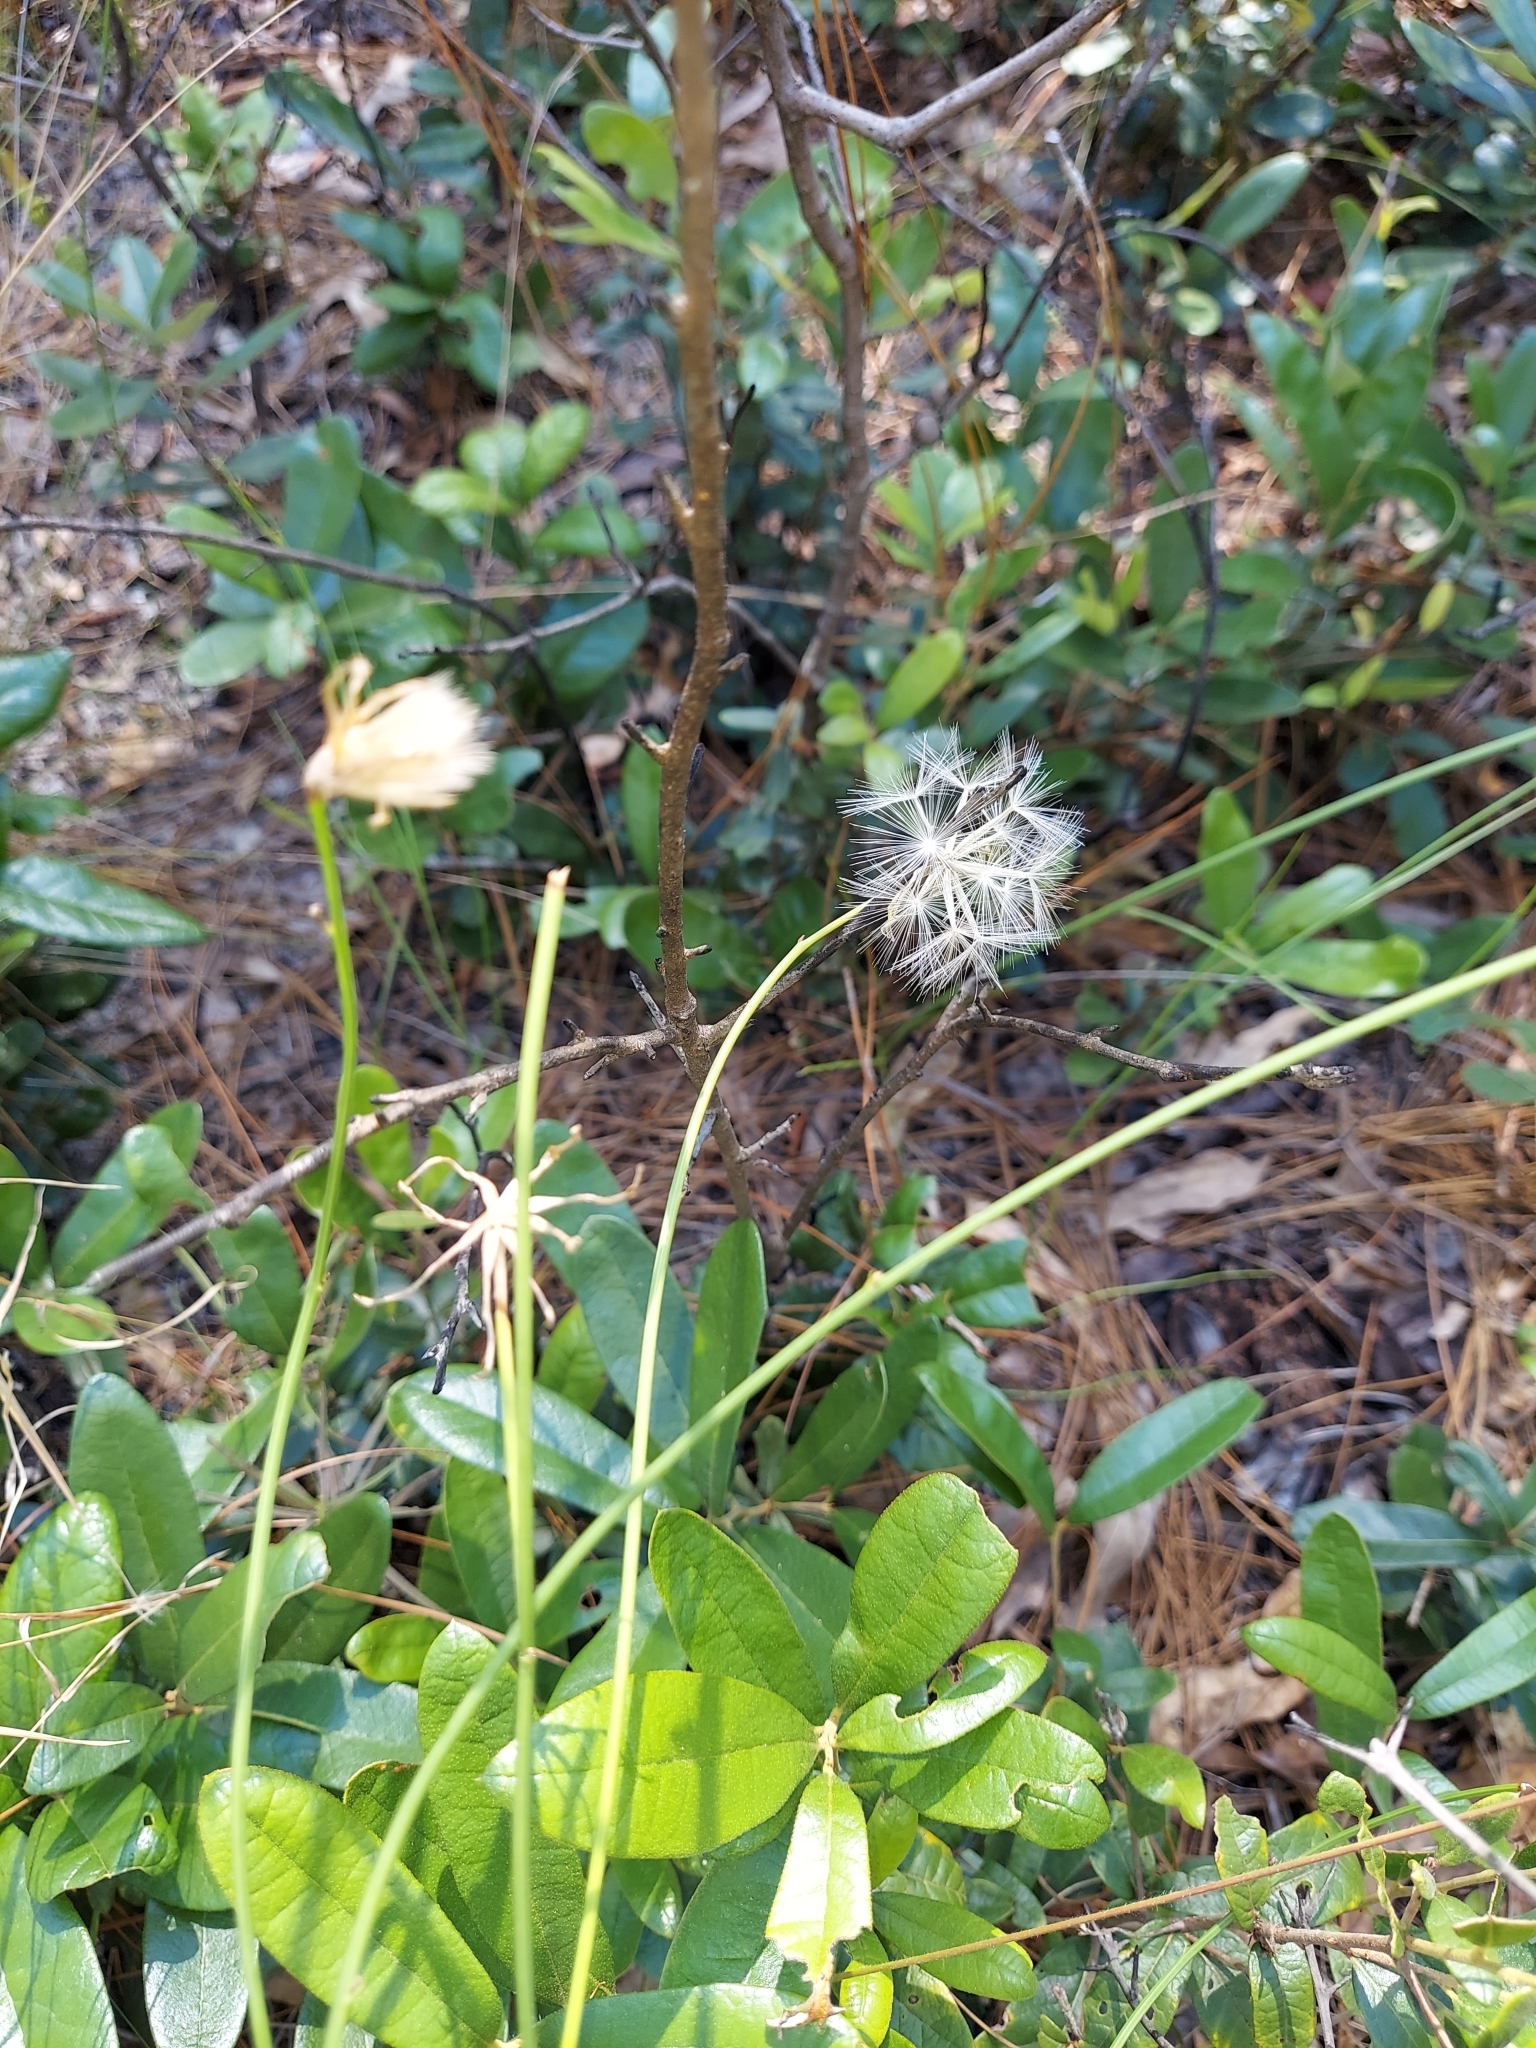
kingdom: Plantae
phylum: Tracheophyta
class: Magnoliopsida
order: Asterales
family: Asteraceae
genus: Lygodesmia
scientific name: Lygodesmia aphylla
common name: Rose-rush
